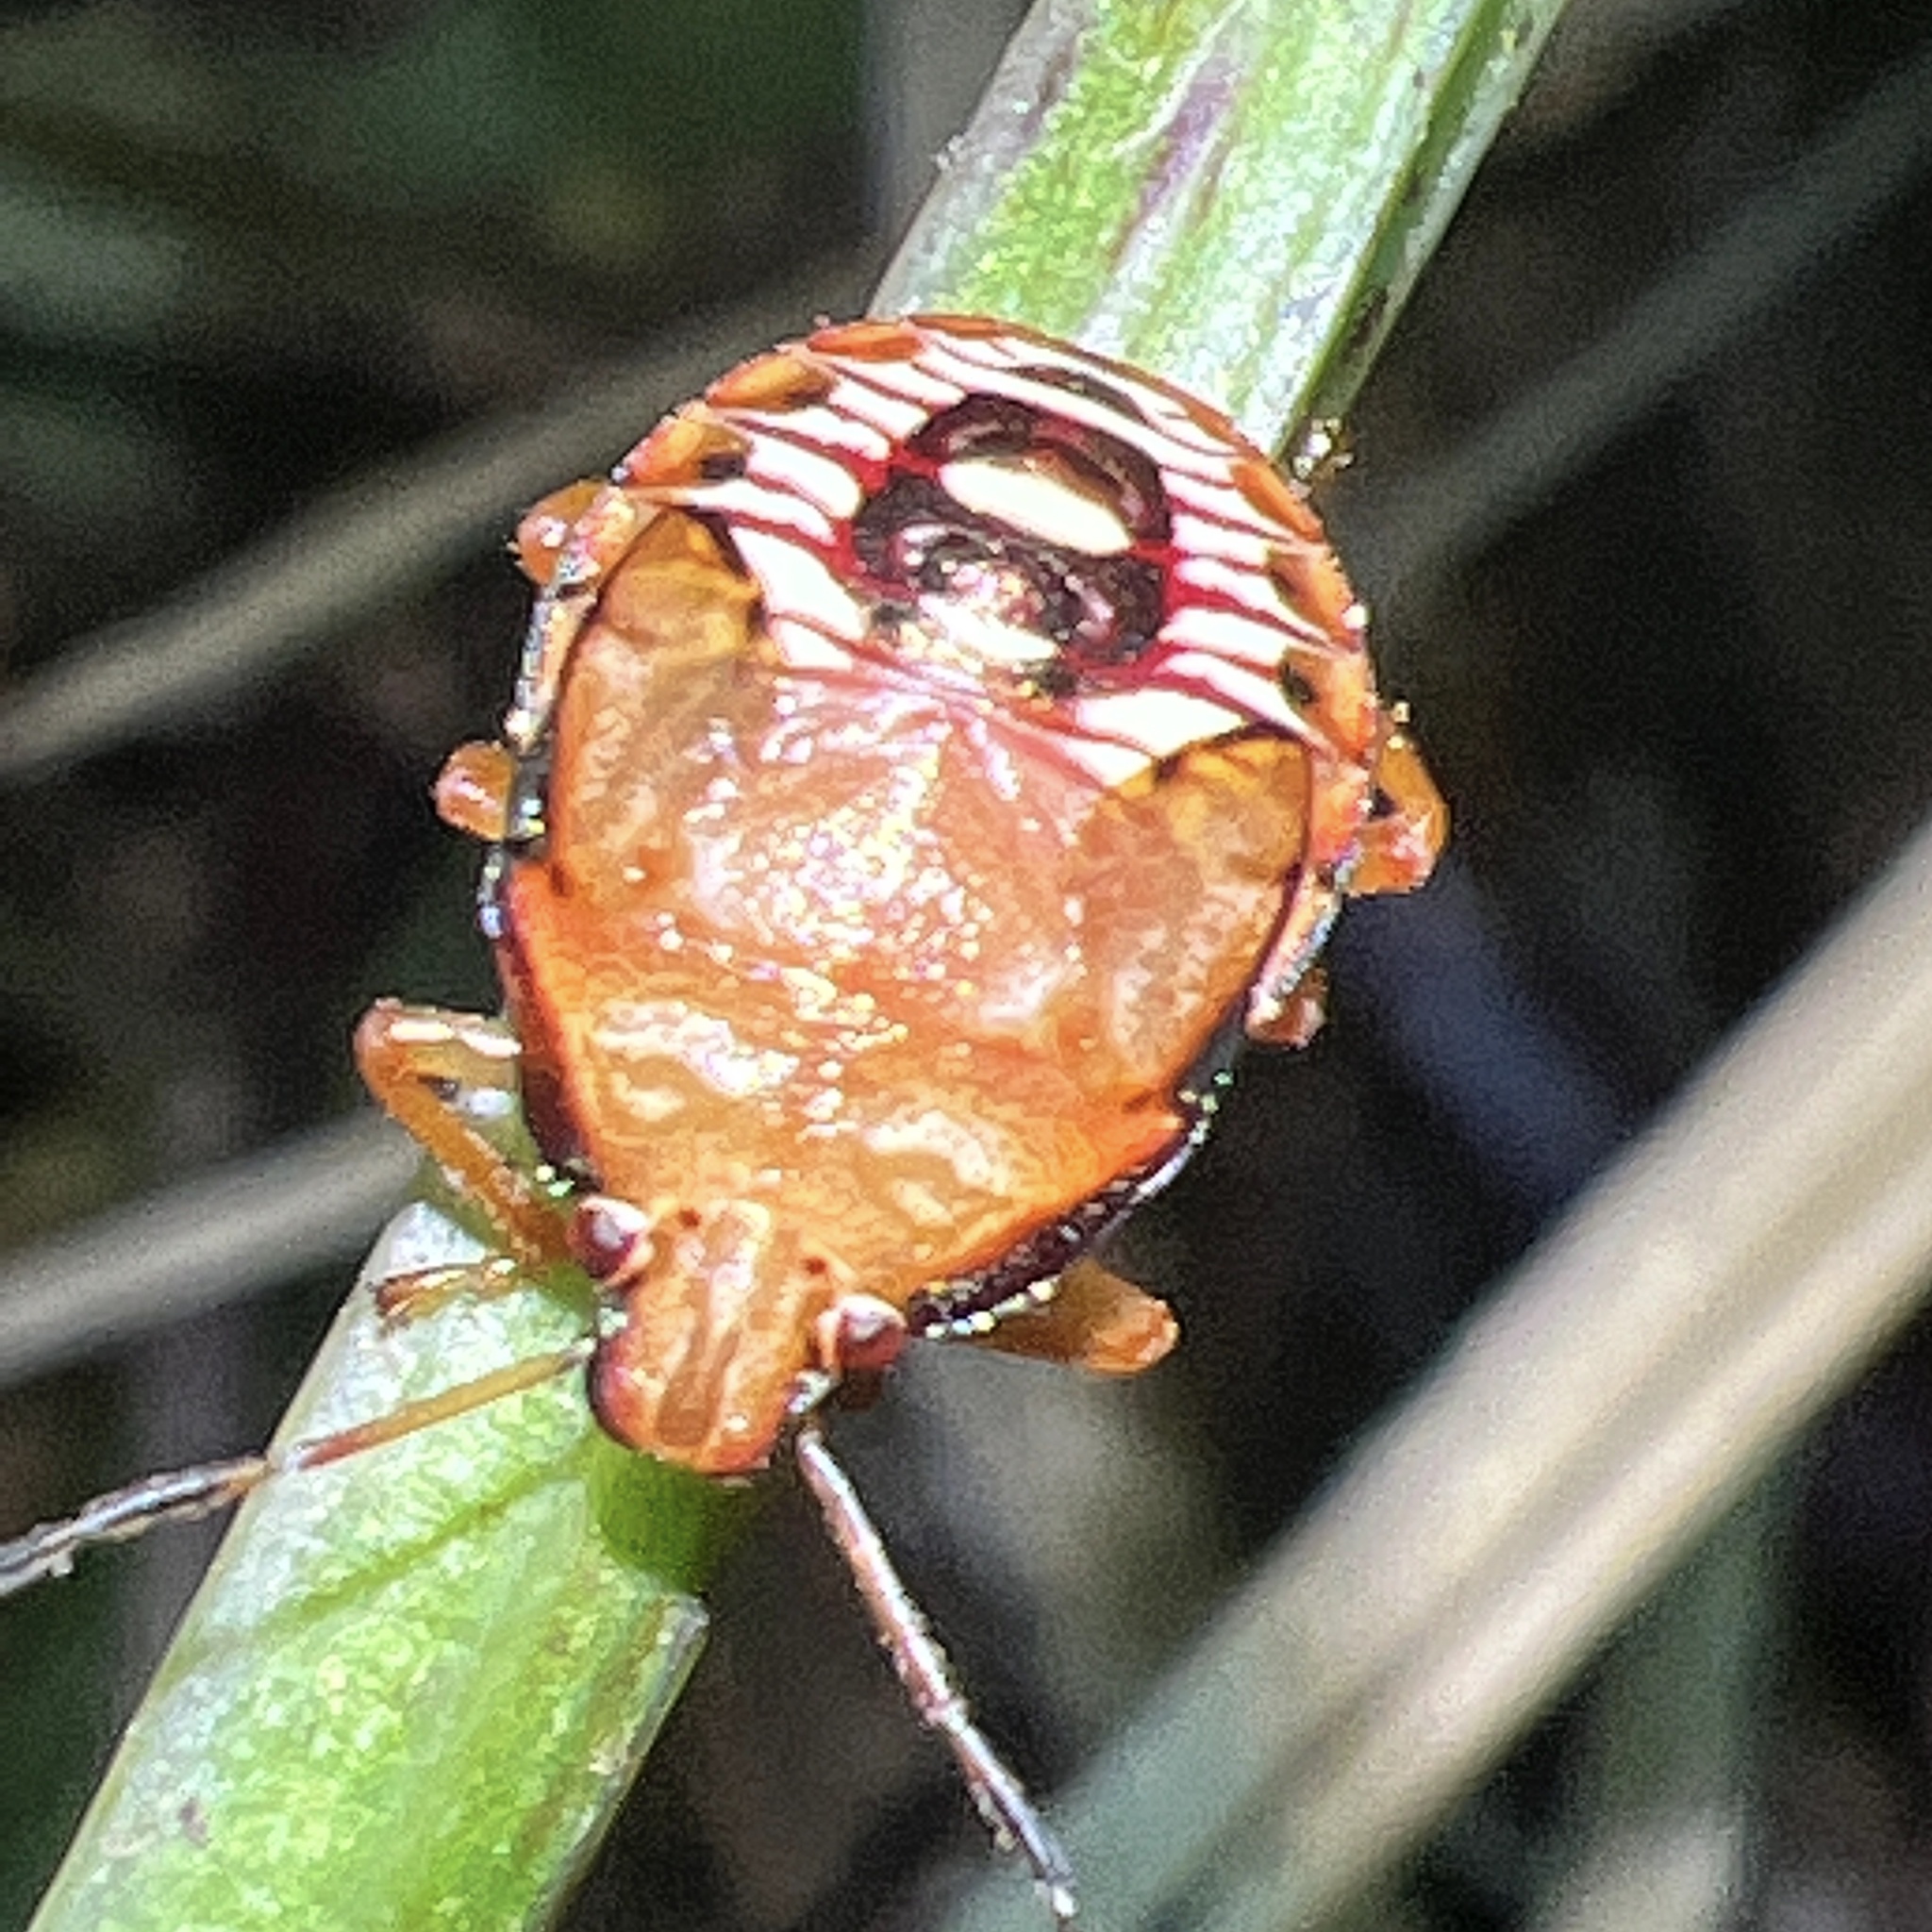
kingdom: Animalia
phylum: Arthropoda
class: Insecta
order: Hemiptera
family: Pentatomidae
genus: Podisus
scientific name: Podisus maculiventris
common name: Spined soldier bug
